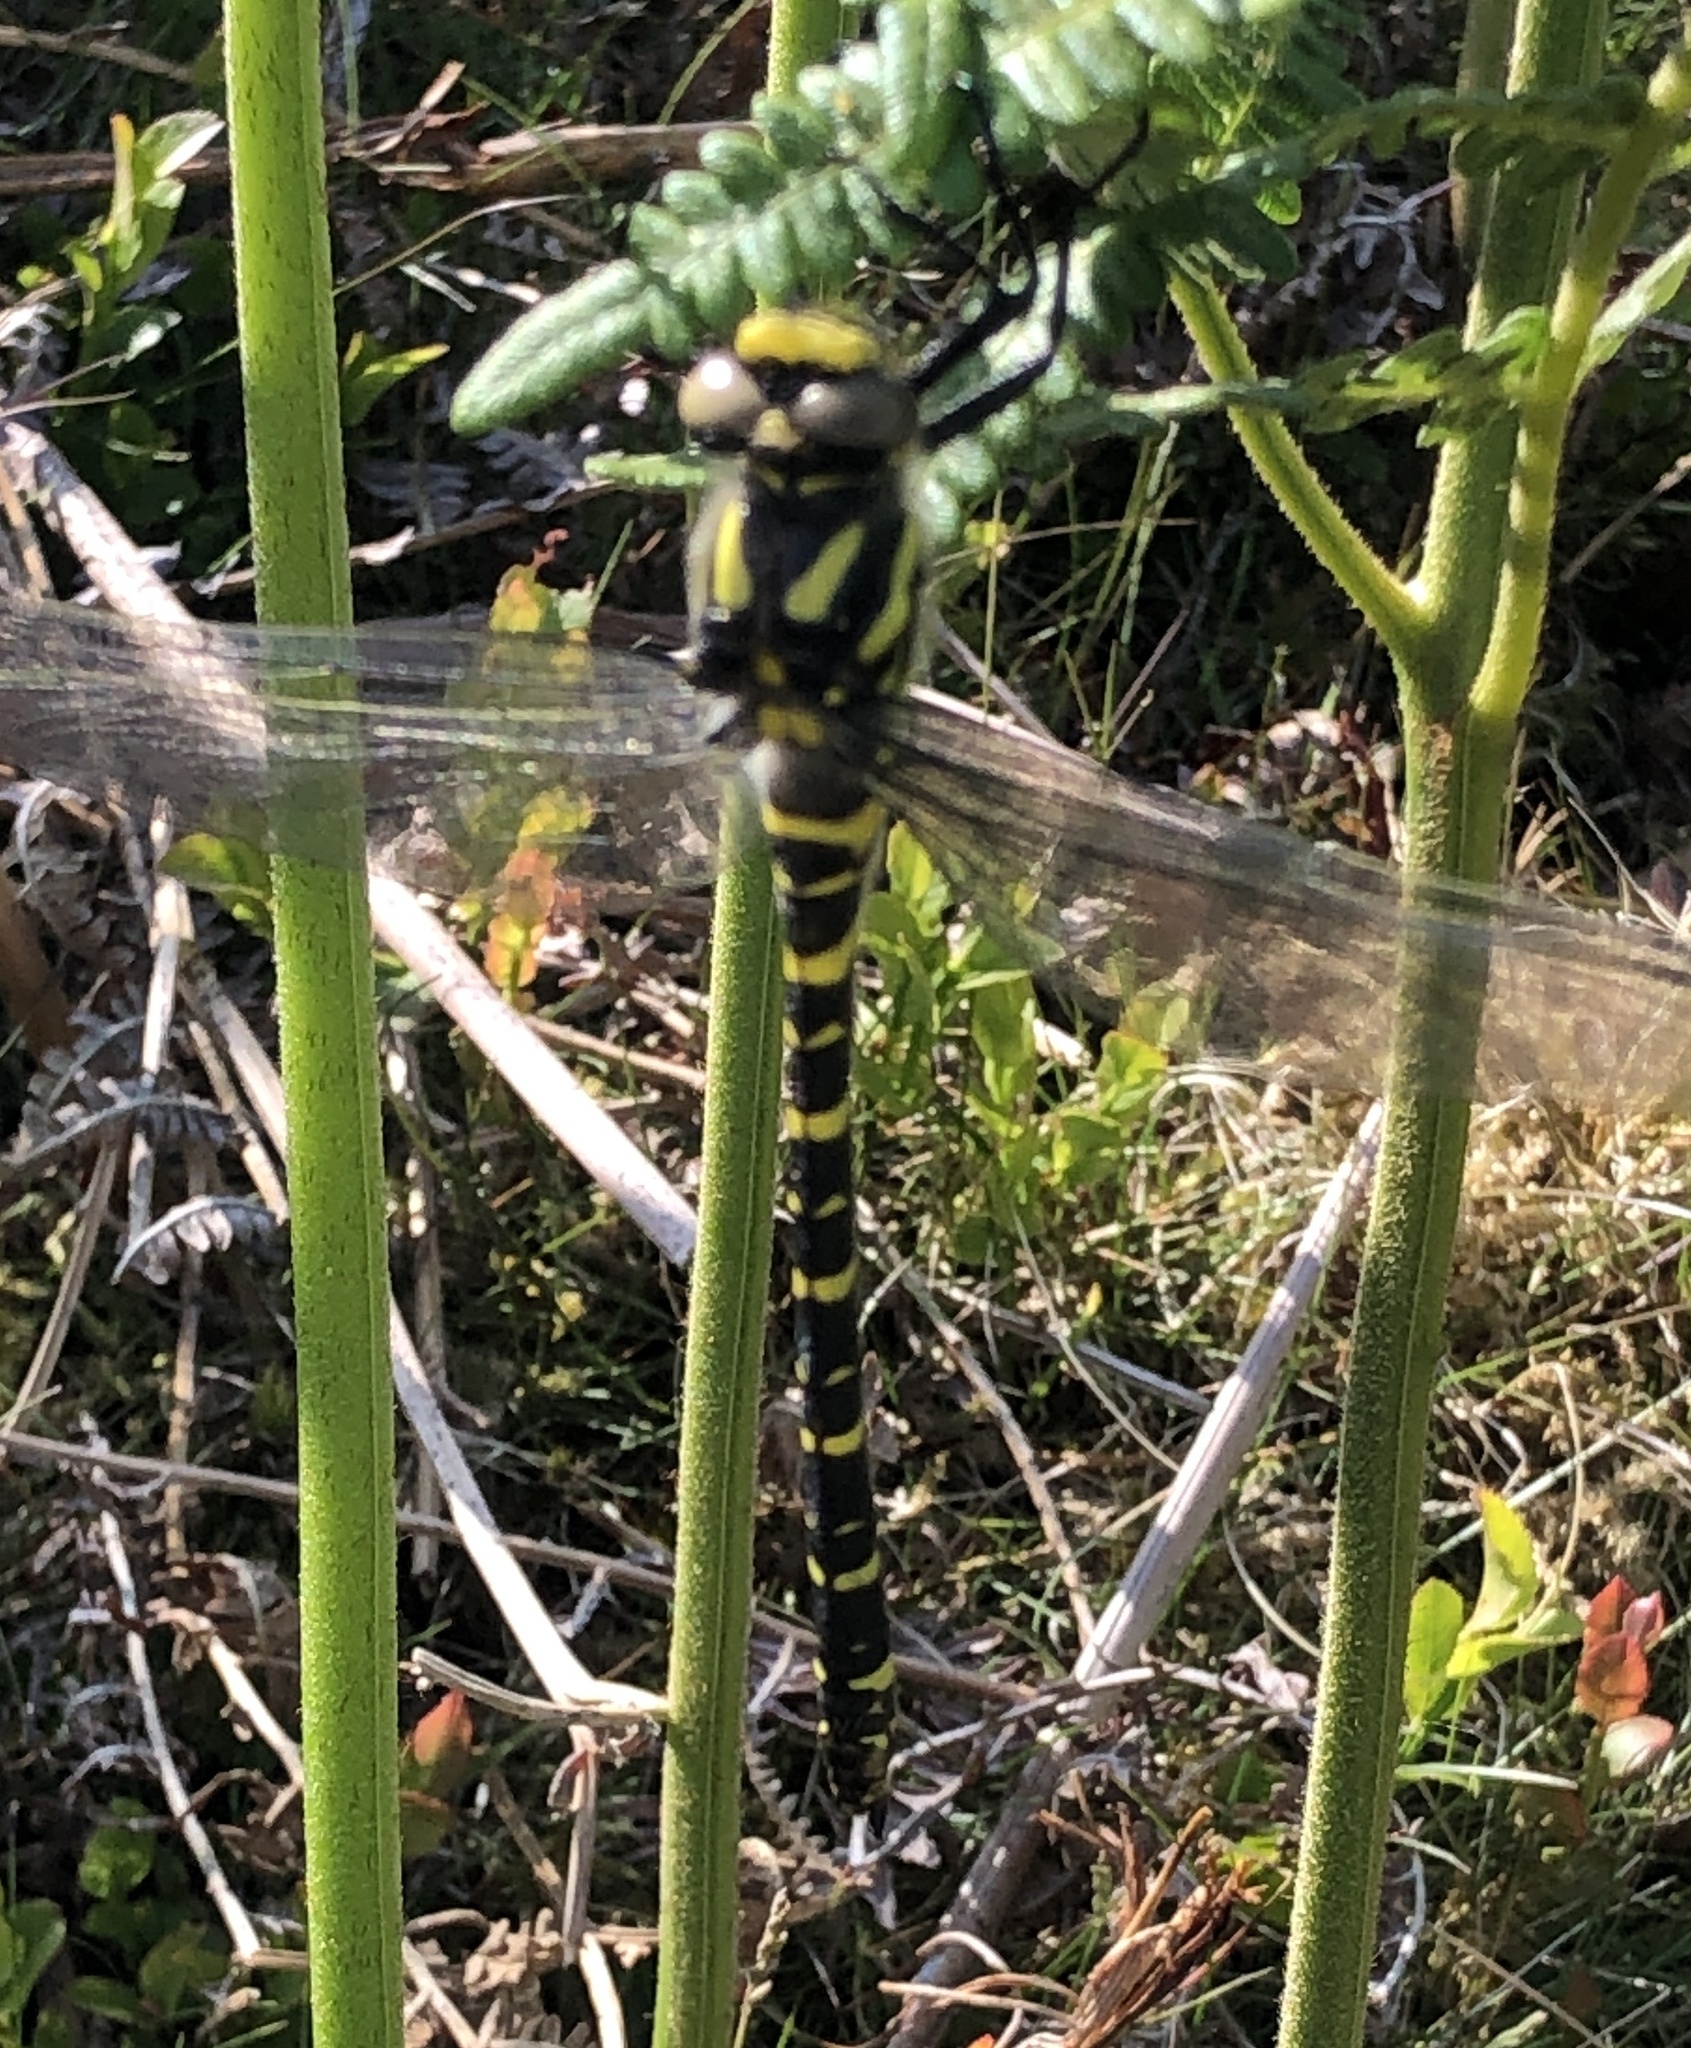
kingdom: Animalia
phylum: Arthropoda
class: Insecta
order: Odonata
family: Cordulegastridae
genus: Cordulegaster
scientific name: Cordulegaster boltonii
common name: Golden-ringed dragonfly
